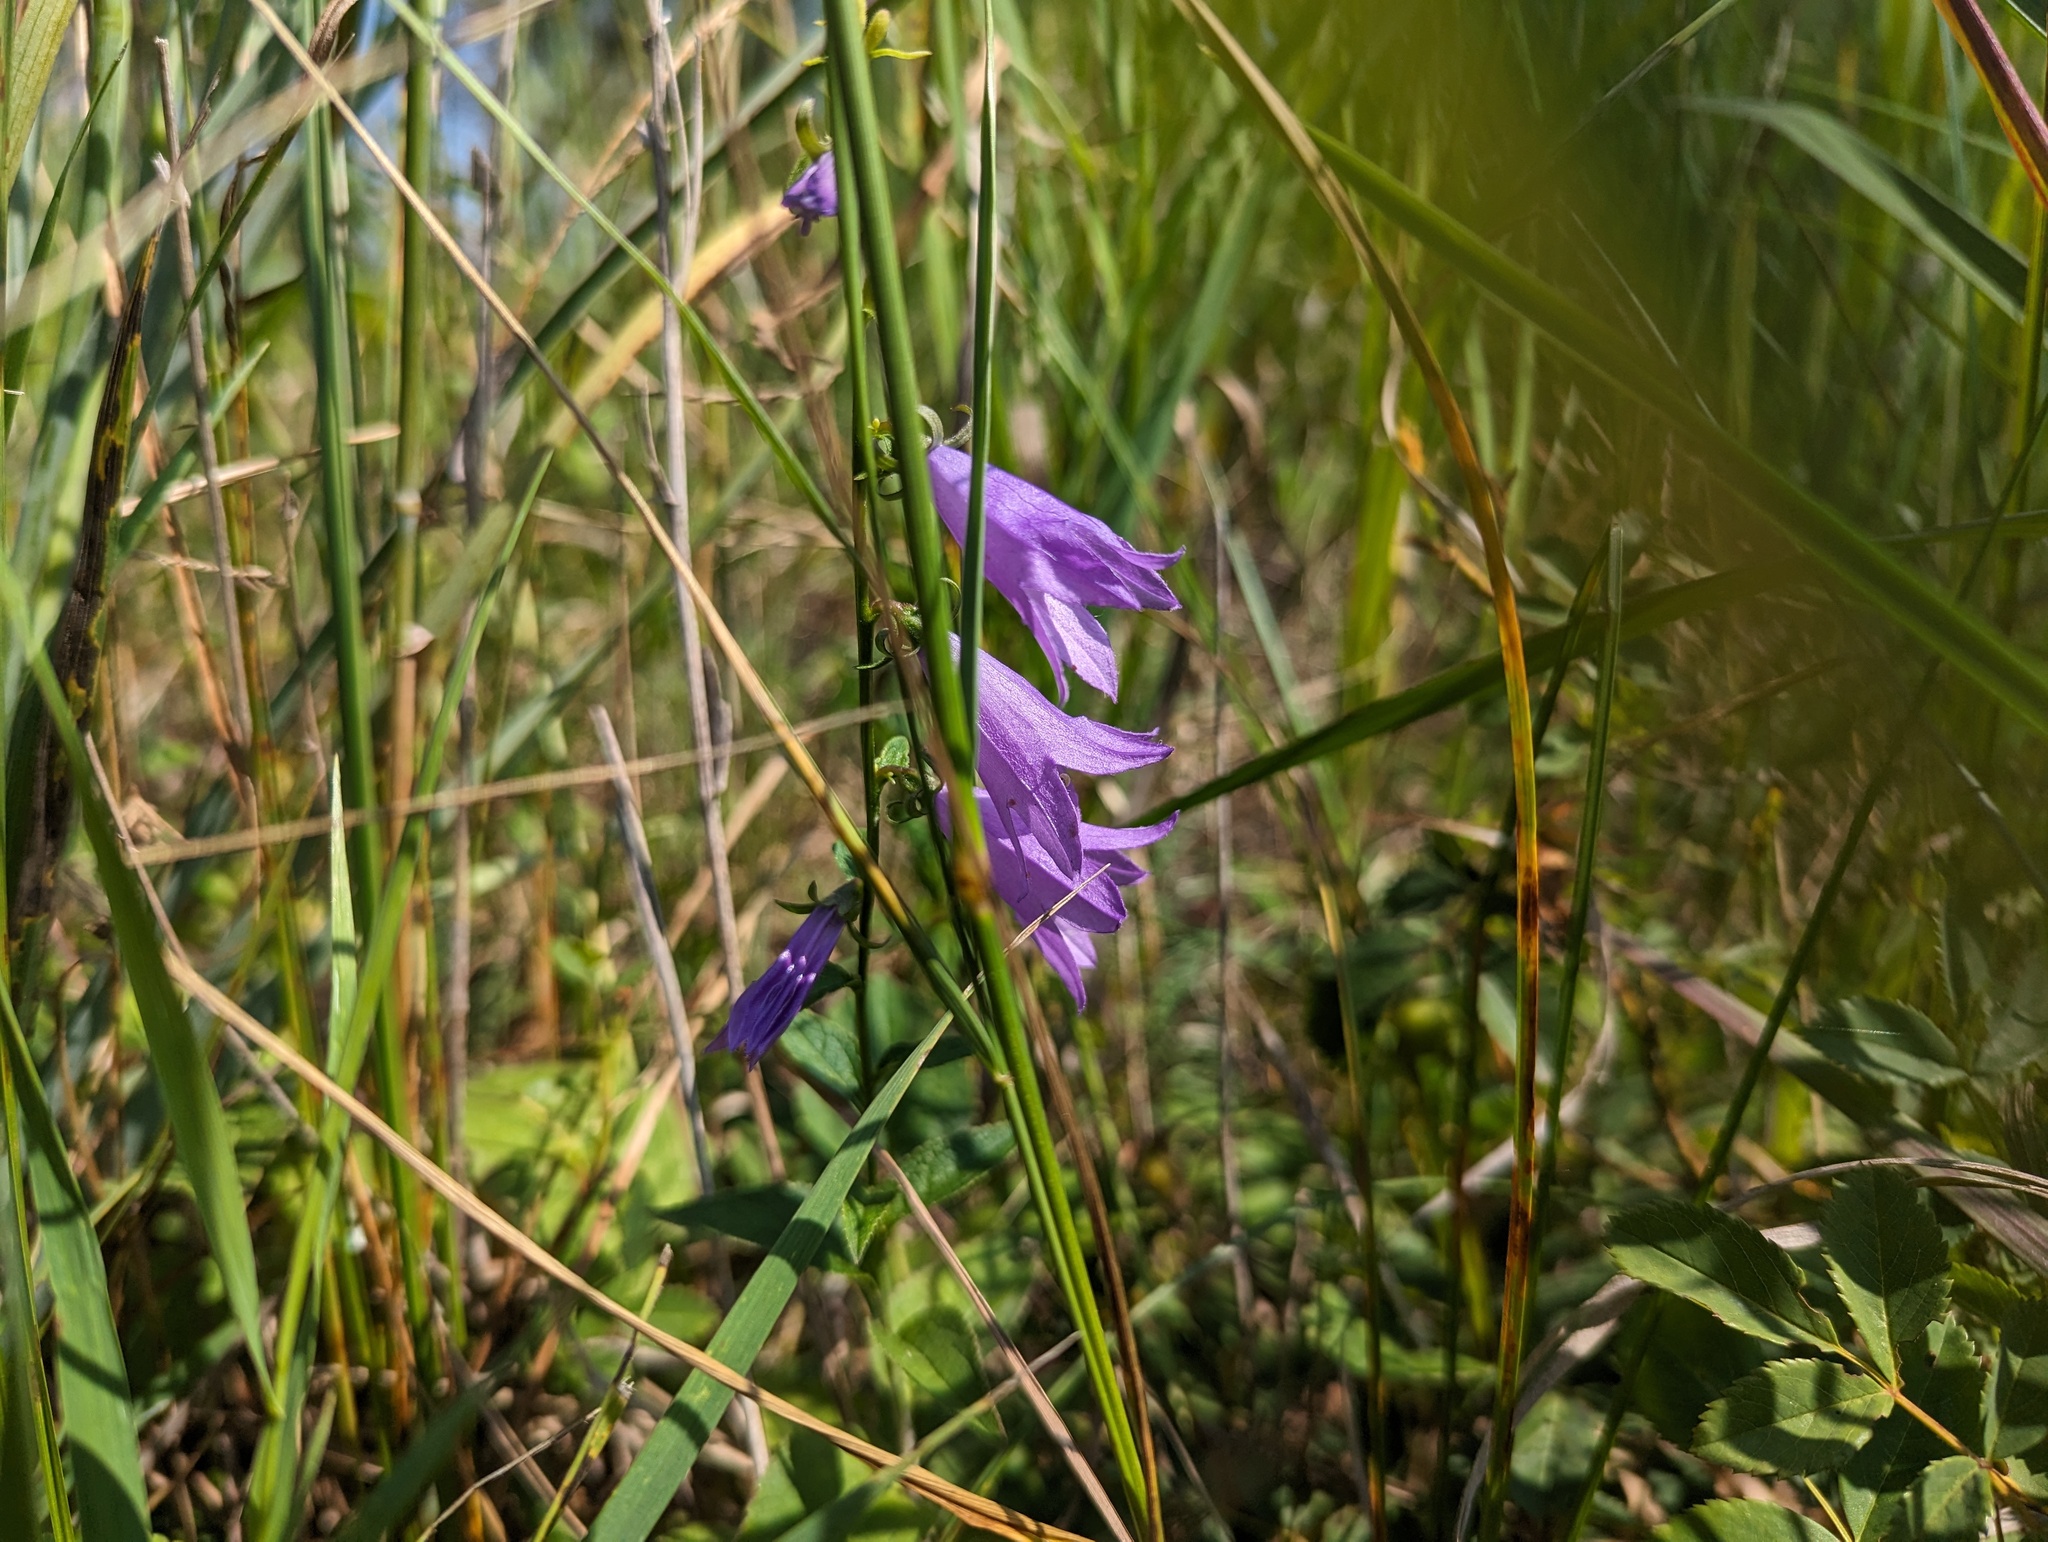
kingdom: Plantae
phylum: Tracheophyta
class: Magnoliopsida
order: Asterales
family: Campanulaceae
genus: Campanula
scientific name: Campanula rapunculoides
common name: Creeping bellflower
